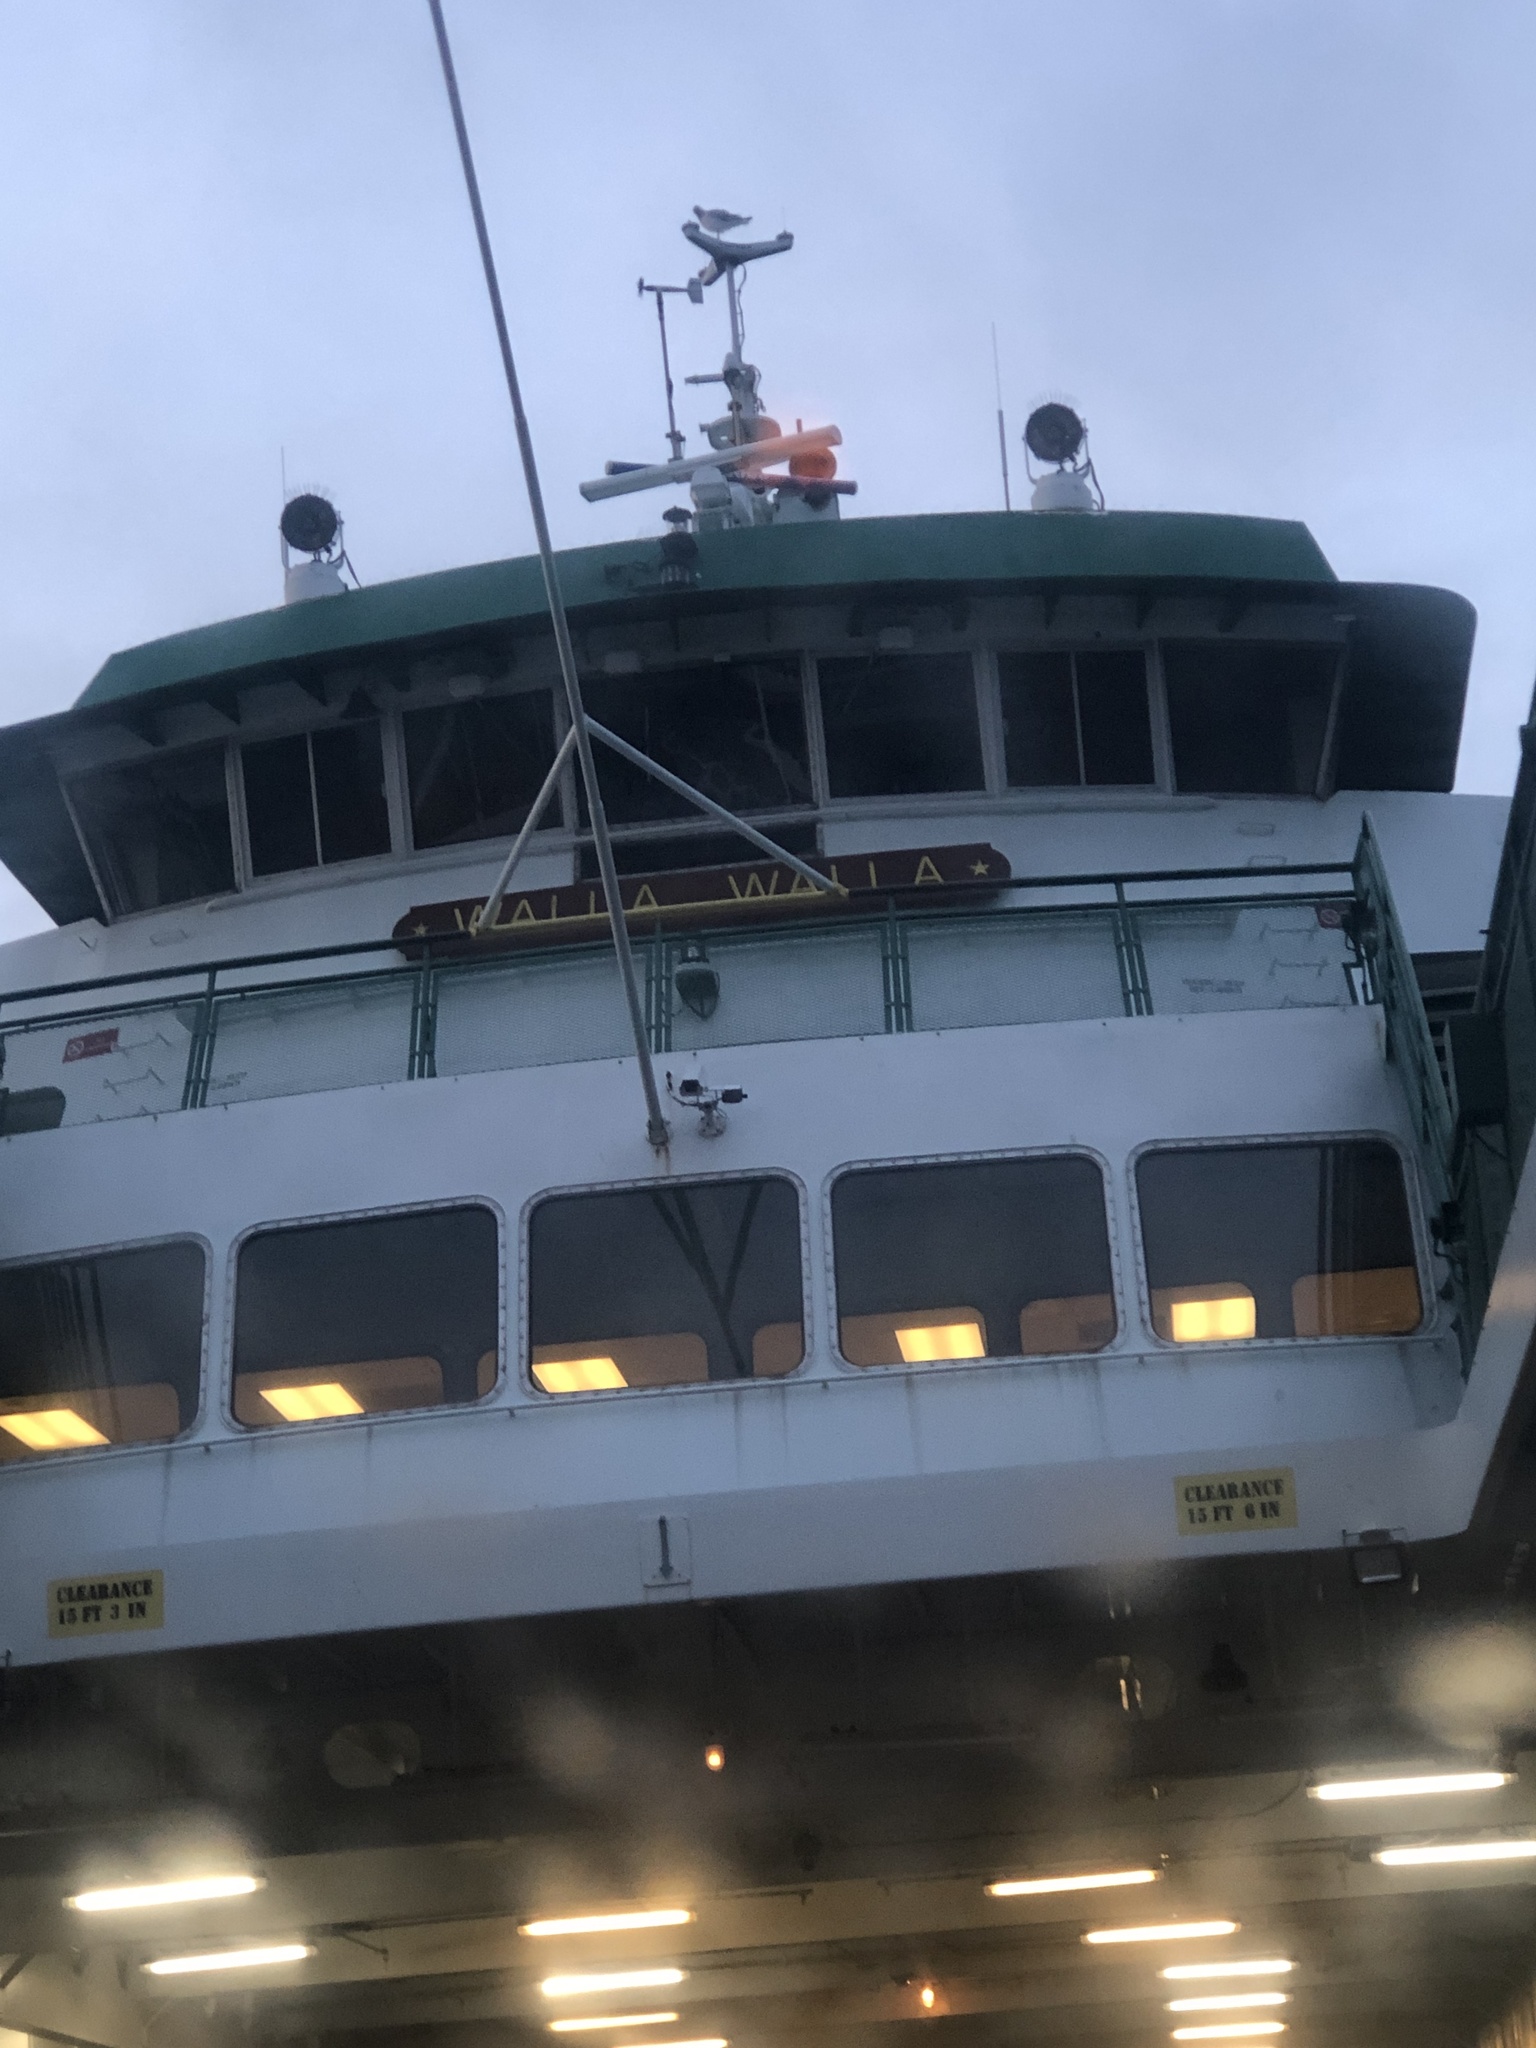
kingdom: Animalia
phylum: Chordata
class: Aves
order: Charadriiformes
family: Laridae
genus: Larus
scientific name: Larus
